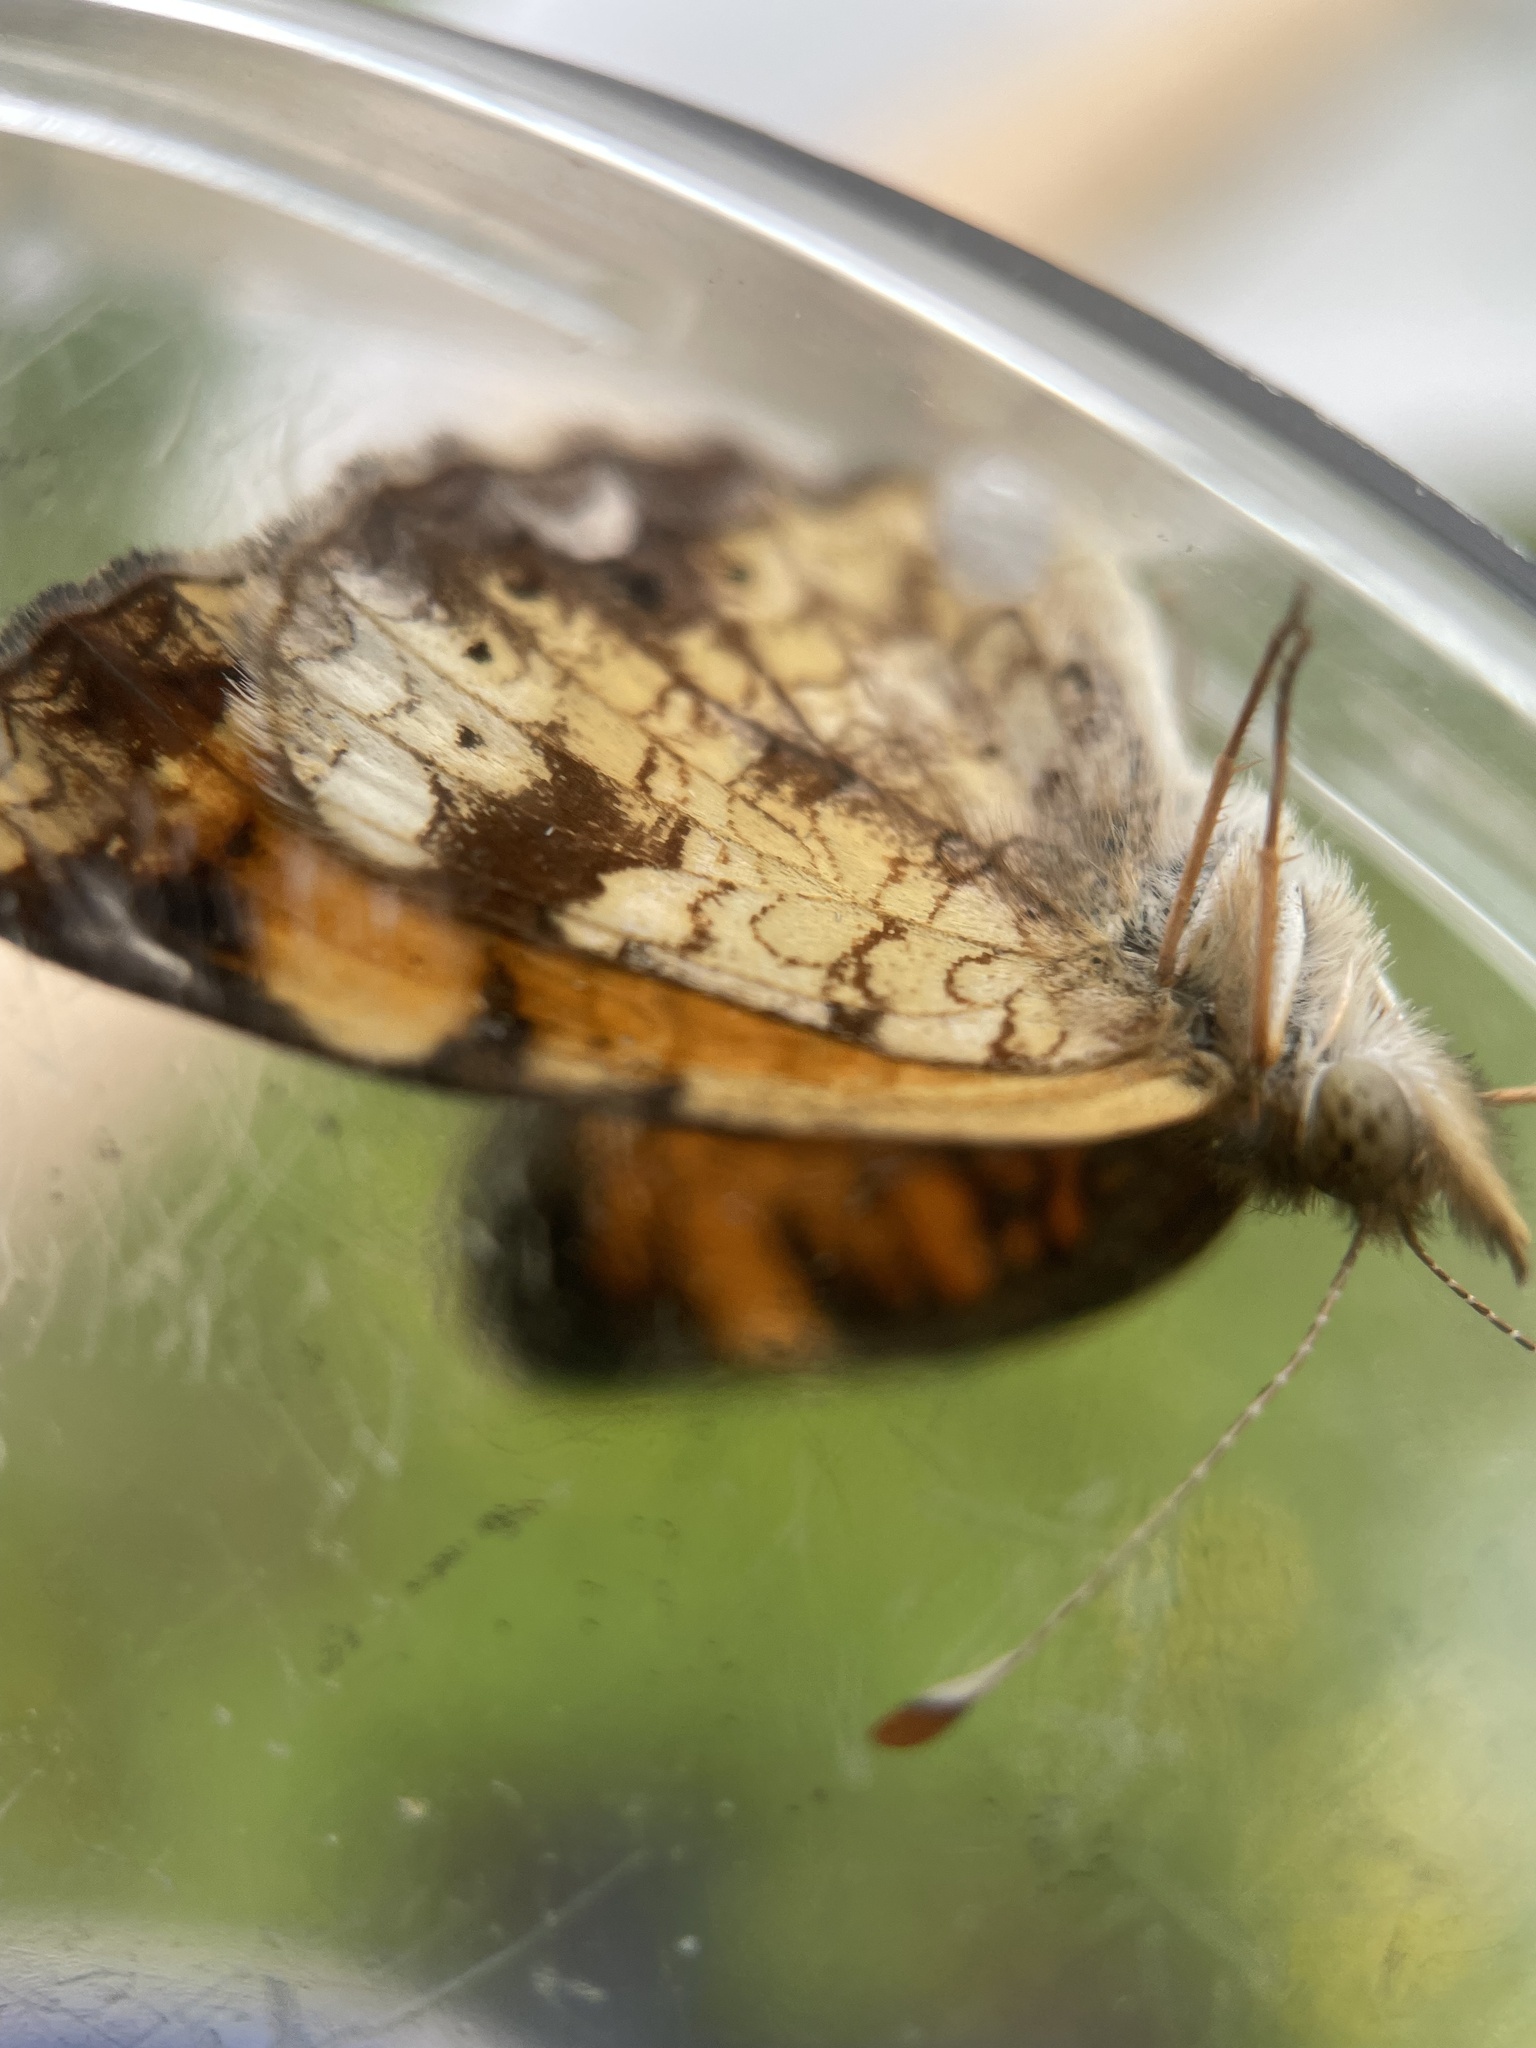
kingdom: Animalia
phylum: Arthropoda
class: Insecta
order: Lepidoptera
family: Nymphalidae
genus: Phyciodes
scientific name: Phyciodes tharos
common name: Pearl crescent
